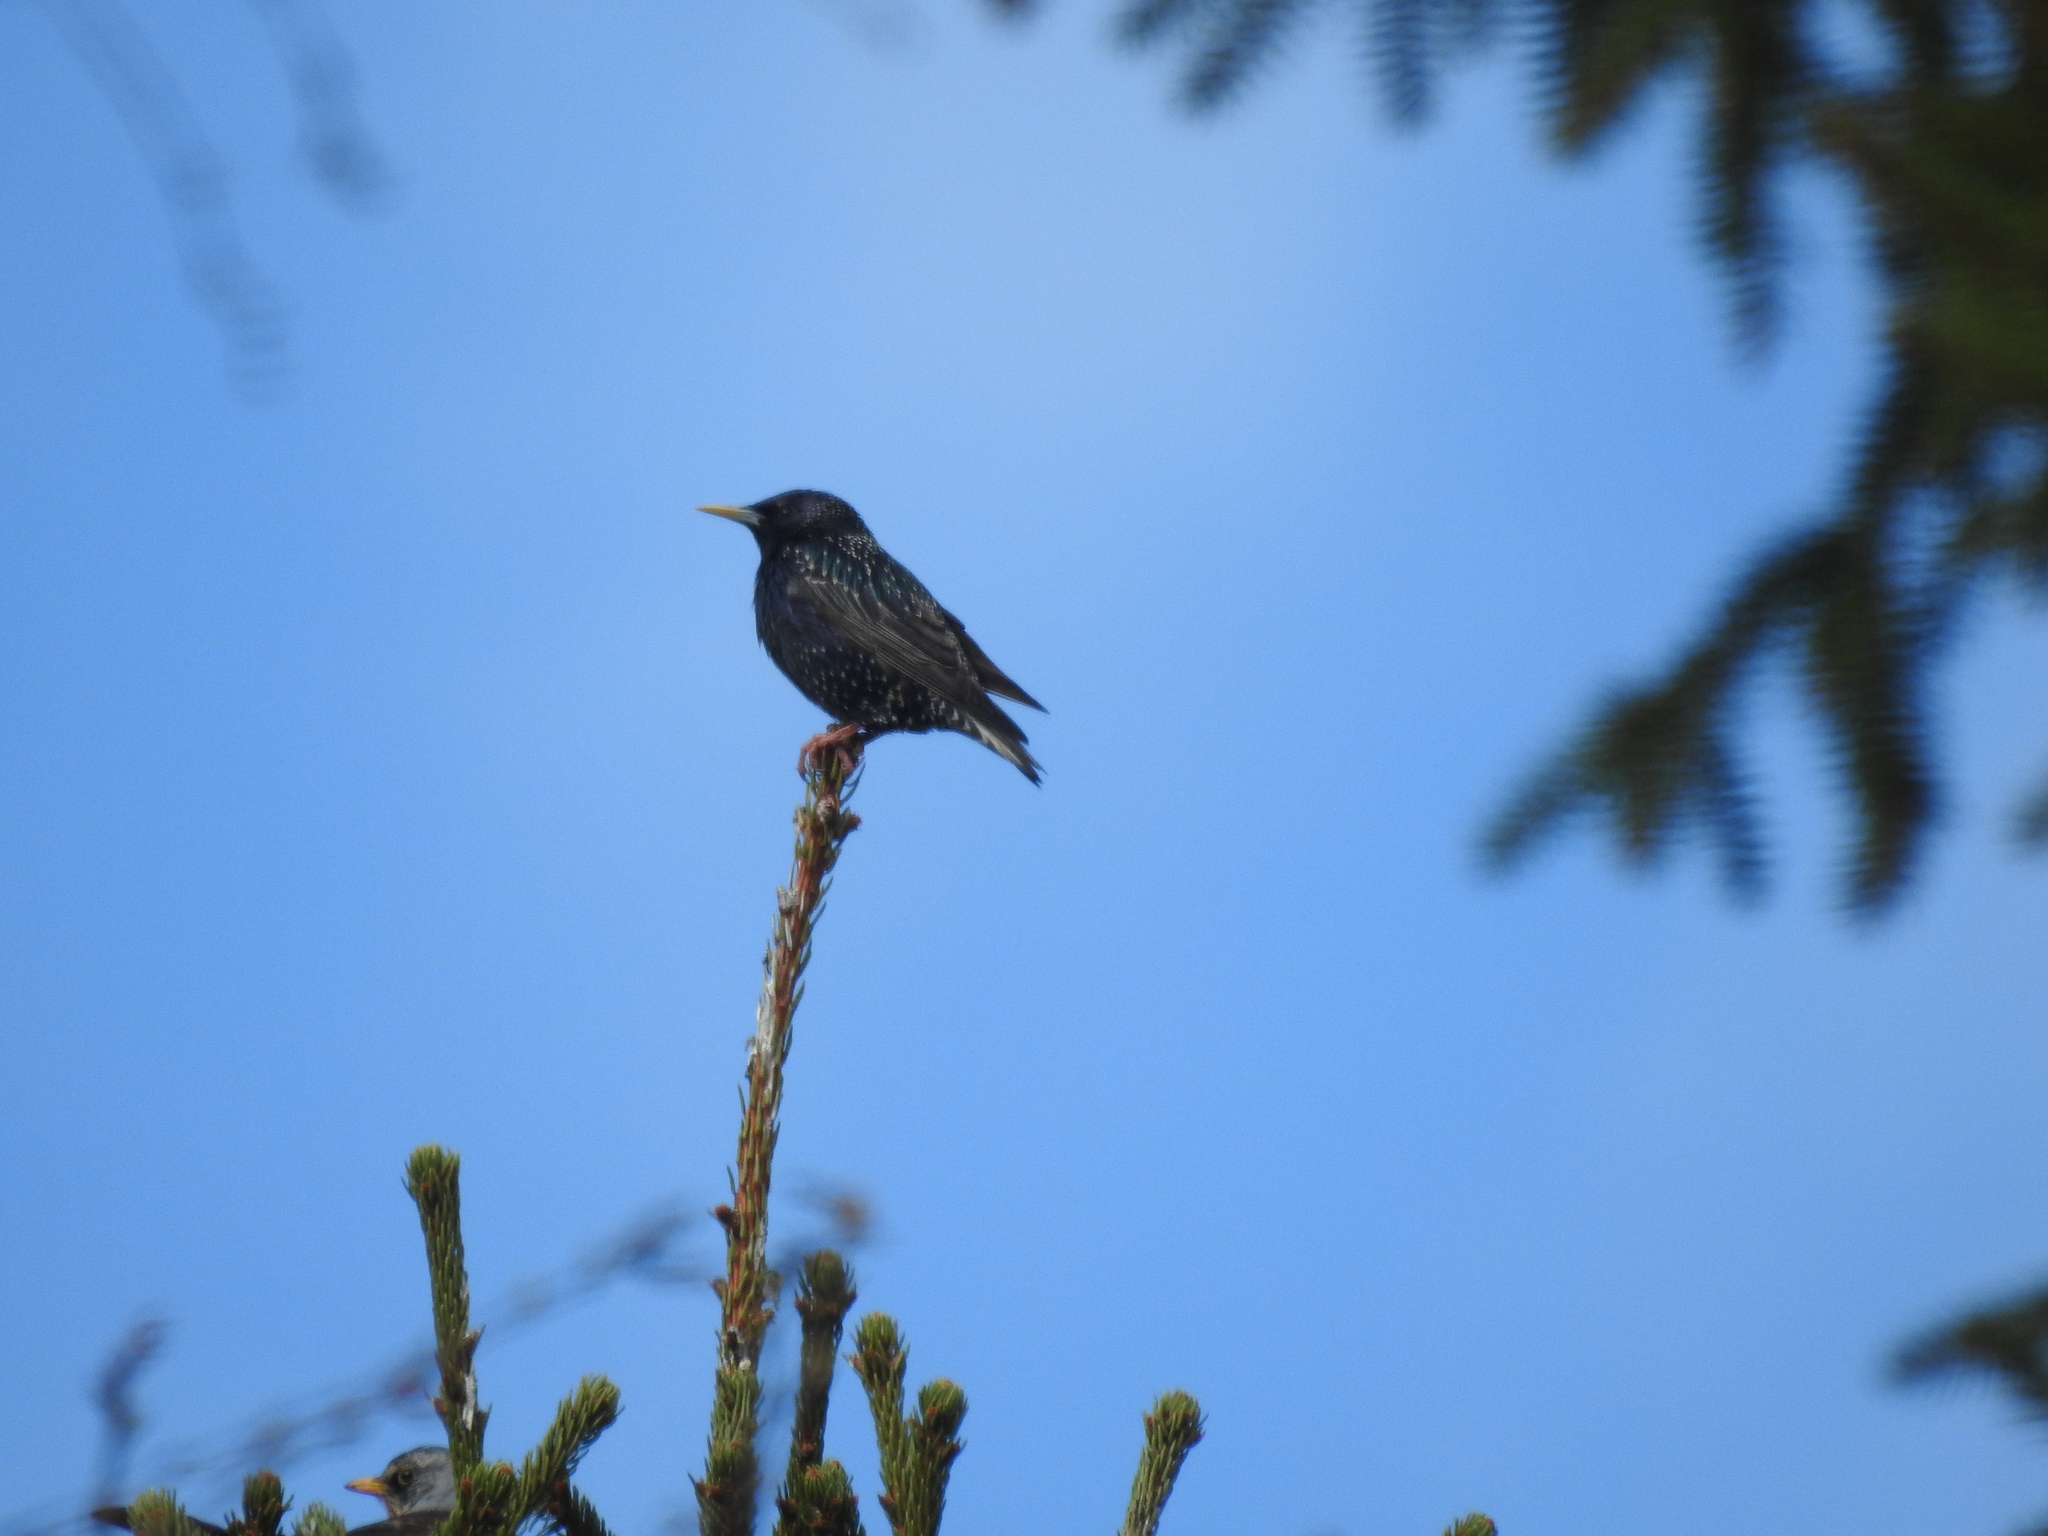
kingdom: Animalia
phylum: Chordata
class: Aves
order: Passeriformes
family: Sturnidae
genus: Sturnus
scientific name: Sturnus vulgaris
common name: Common starling
